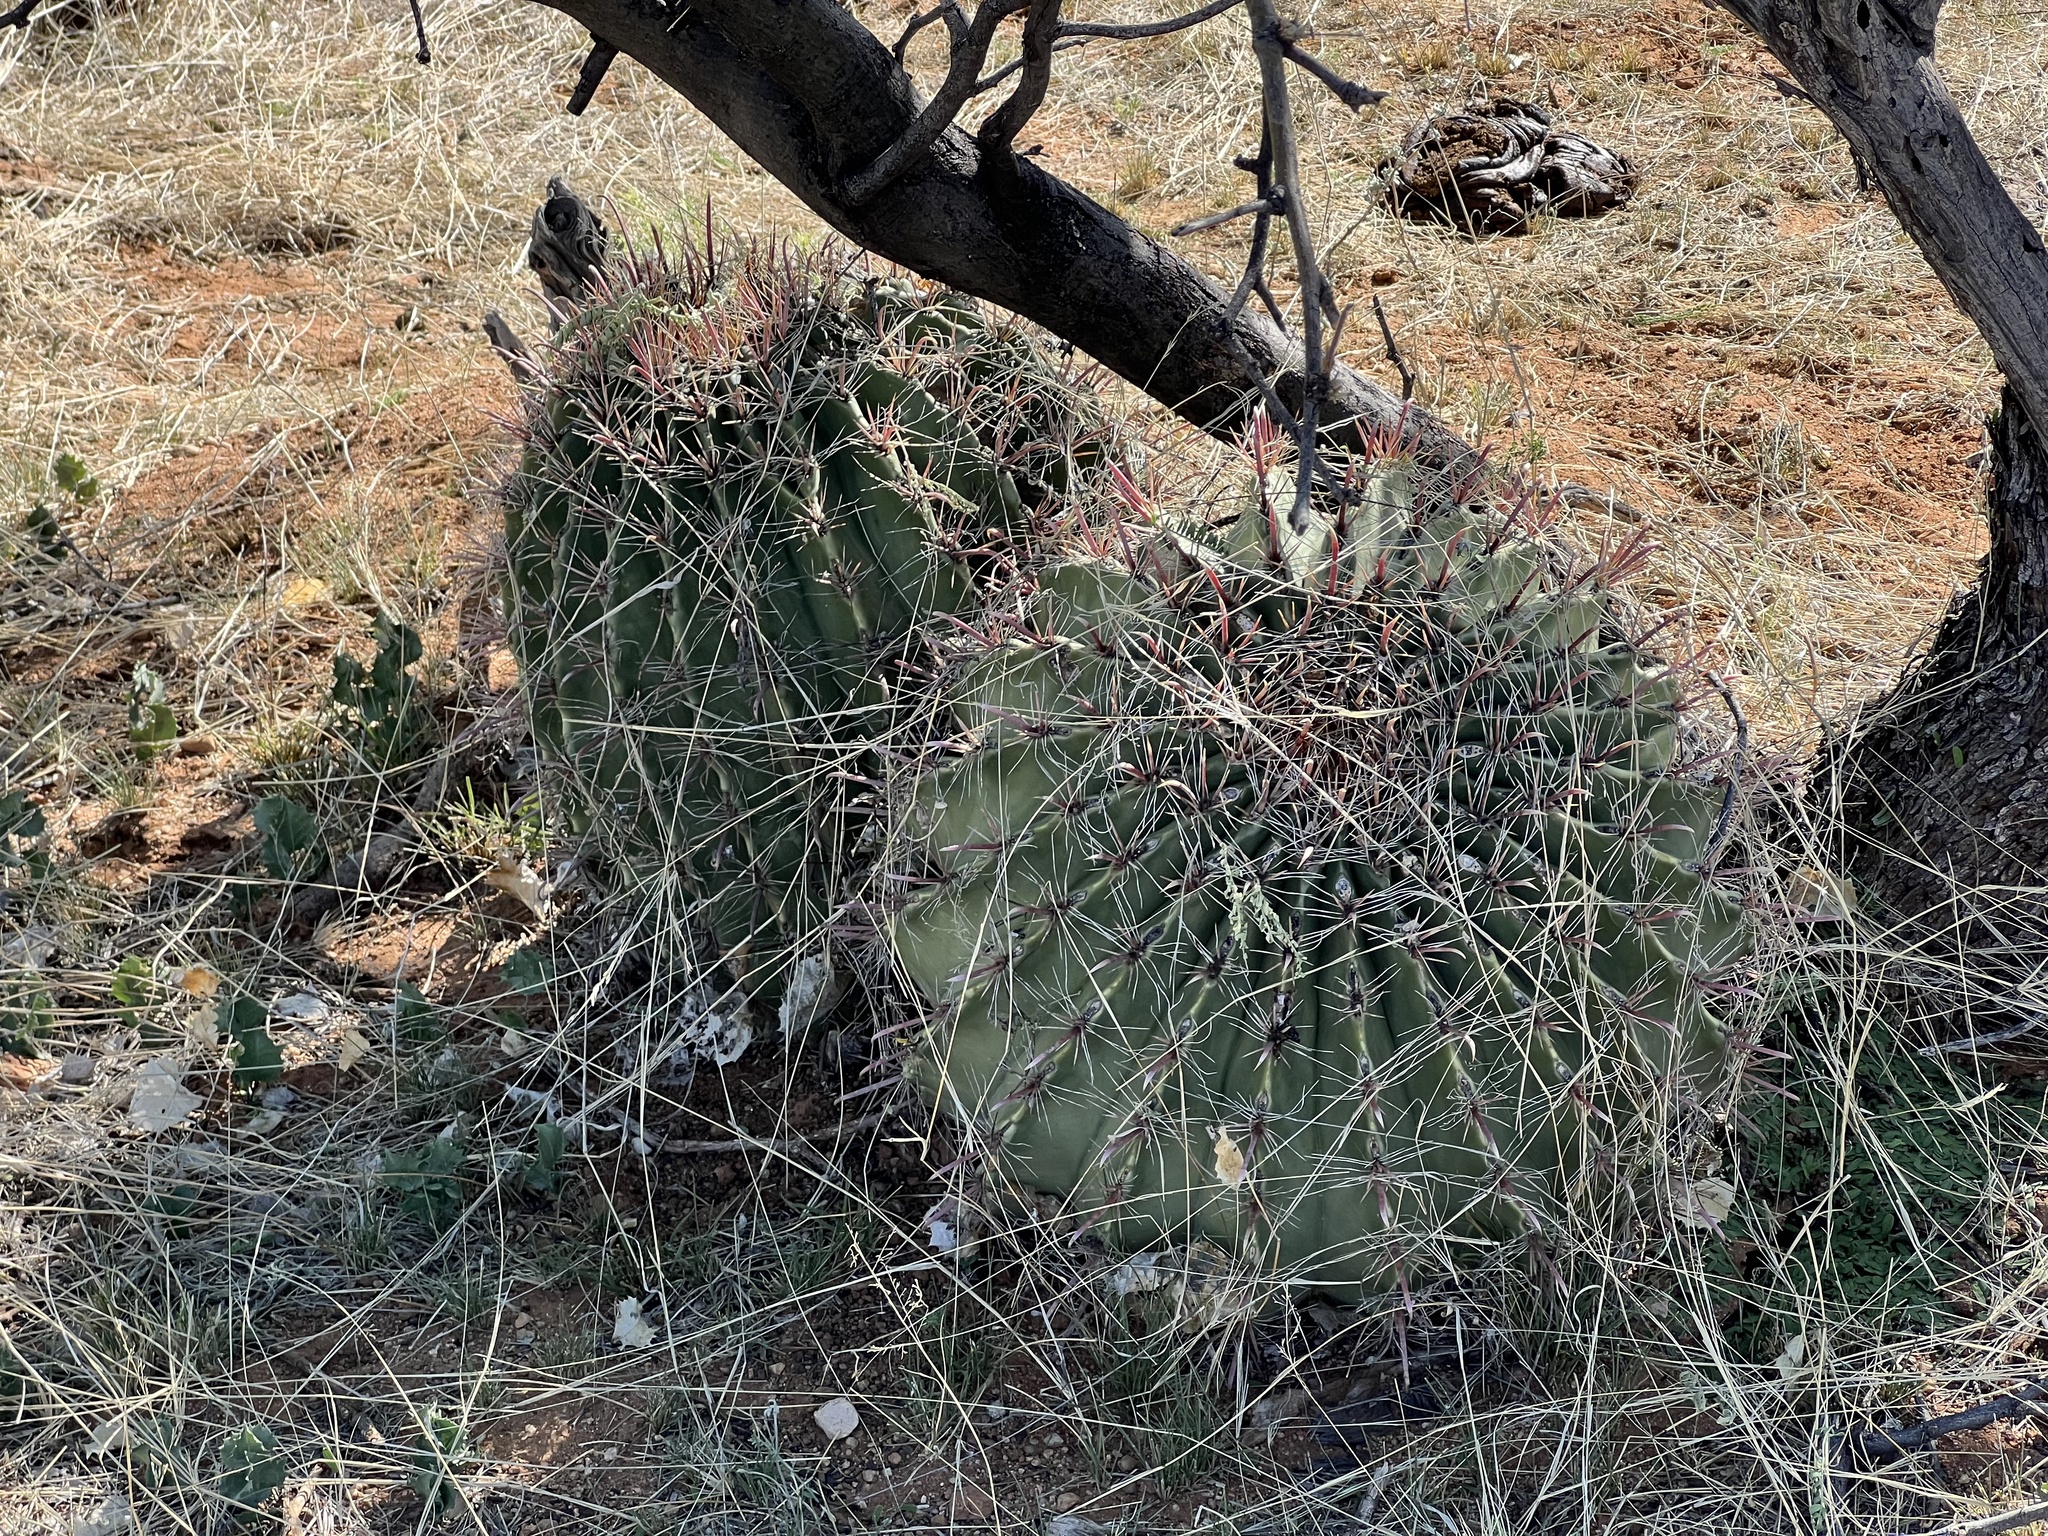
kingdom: Plantae
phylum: Tracheophyta
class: Magnoliopsida
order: Caryophyllales
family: Cactaceae
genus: Ferocactus
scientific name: Ferocactus wislizeni
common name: Candy barrel cactus
